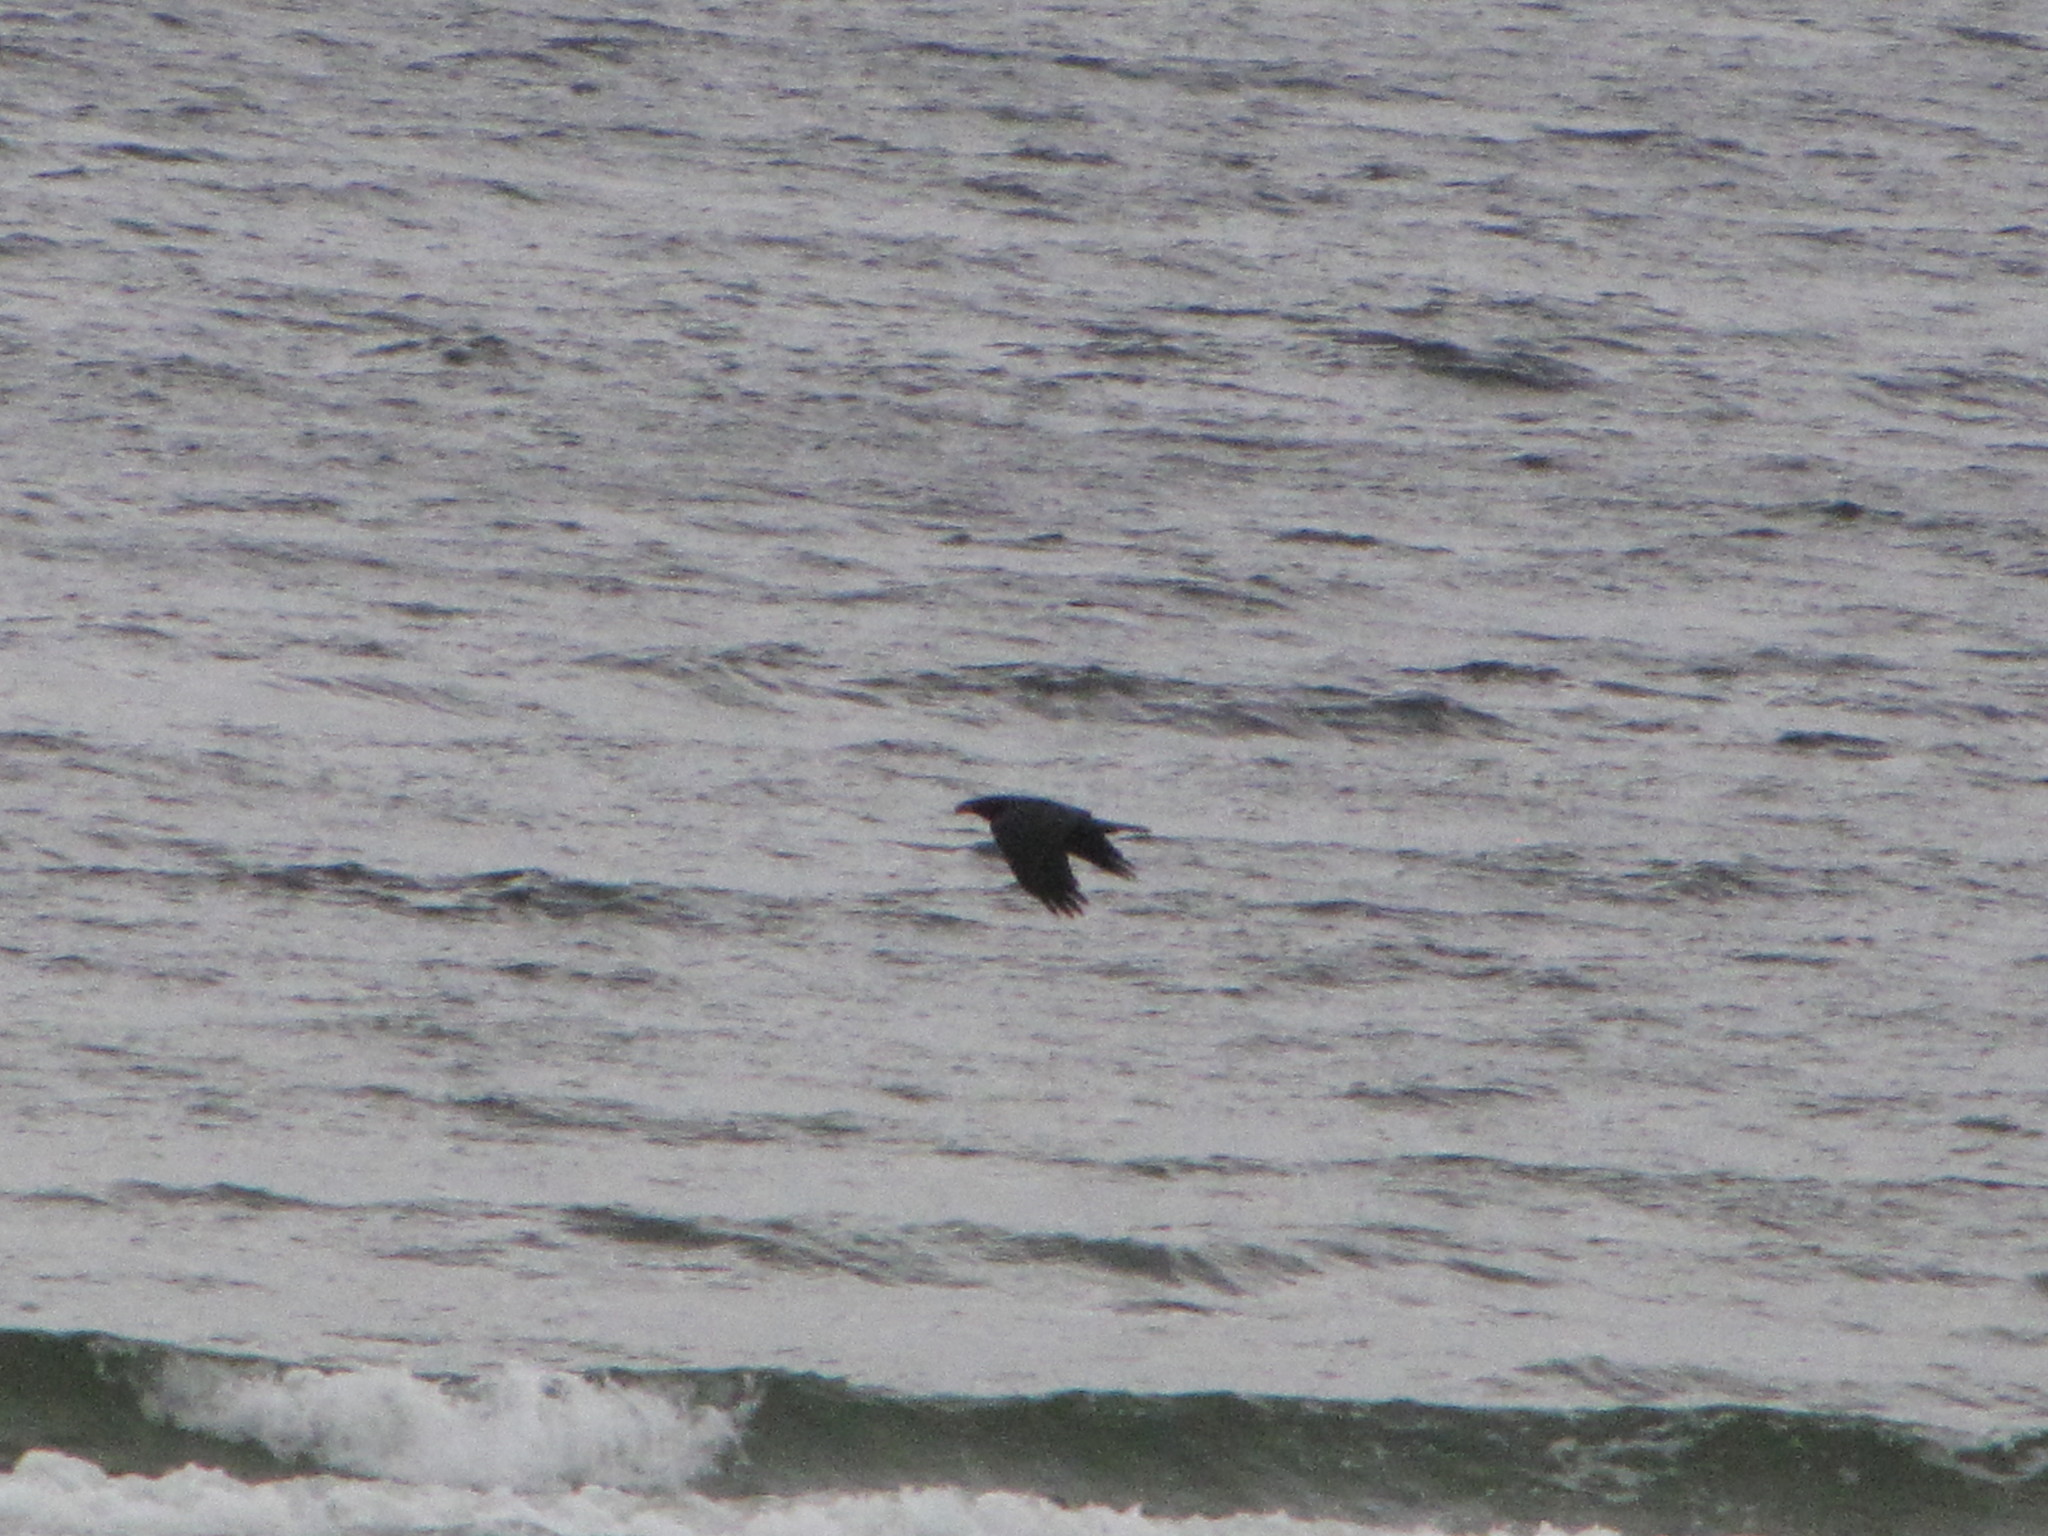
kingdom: Animalia
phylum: Chordata
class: Aves
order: Passeriformes
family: Corvidae
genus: Corvus
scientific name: Corvus corax
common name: Common raven
